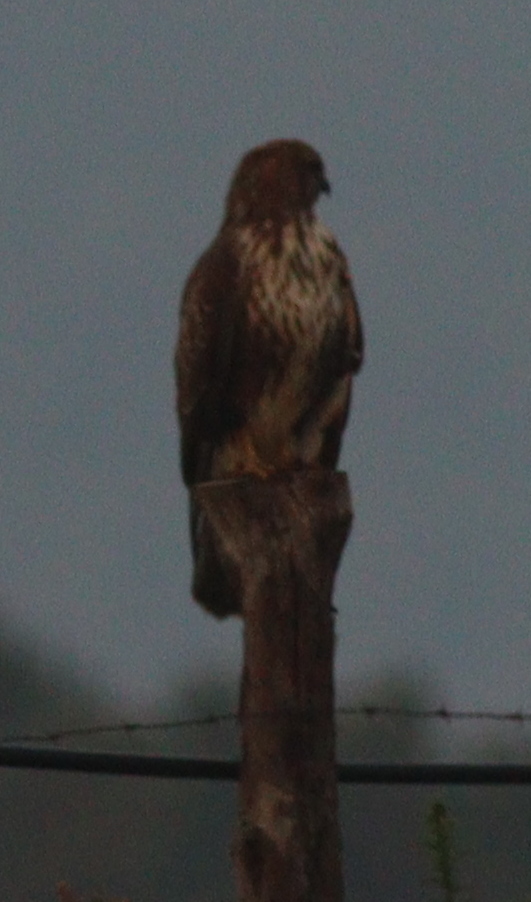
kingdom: Animalia
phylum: Chordata
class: Aves
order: Accipitriformes
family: Accipitridae
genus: Buteo
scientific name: Buteo buteo
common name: Common buzzard
